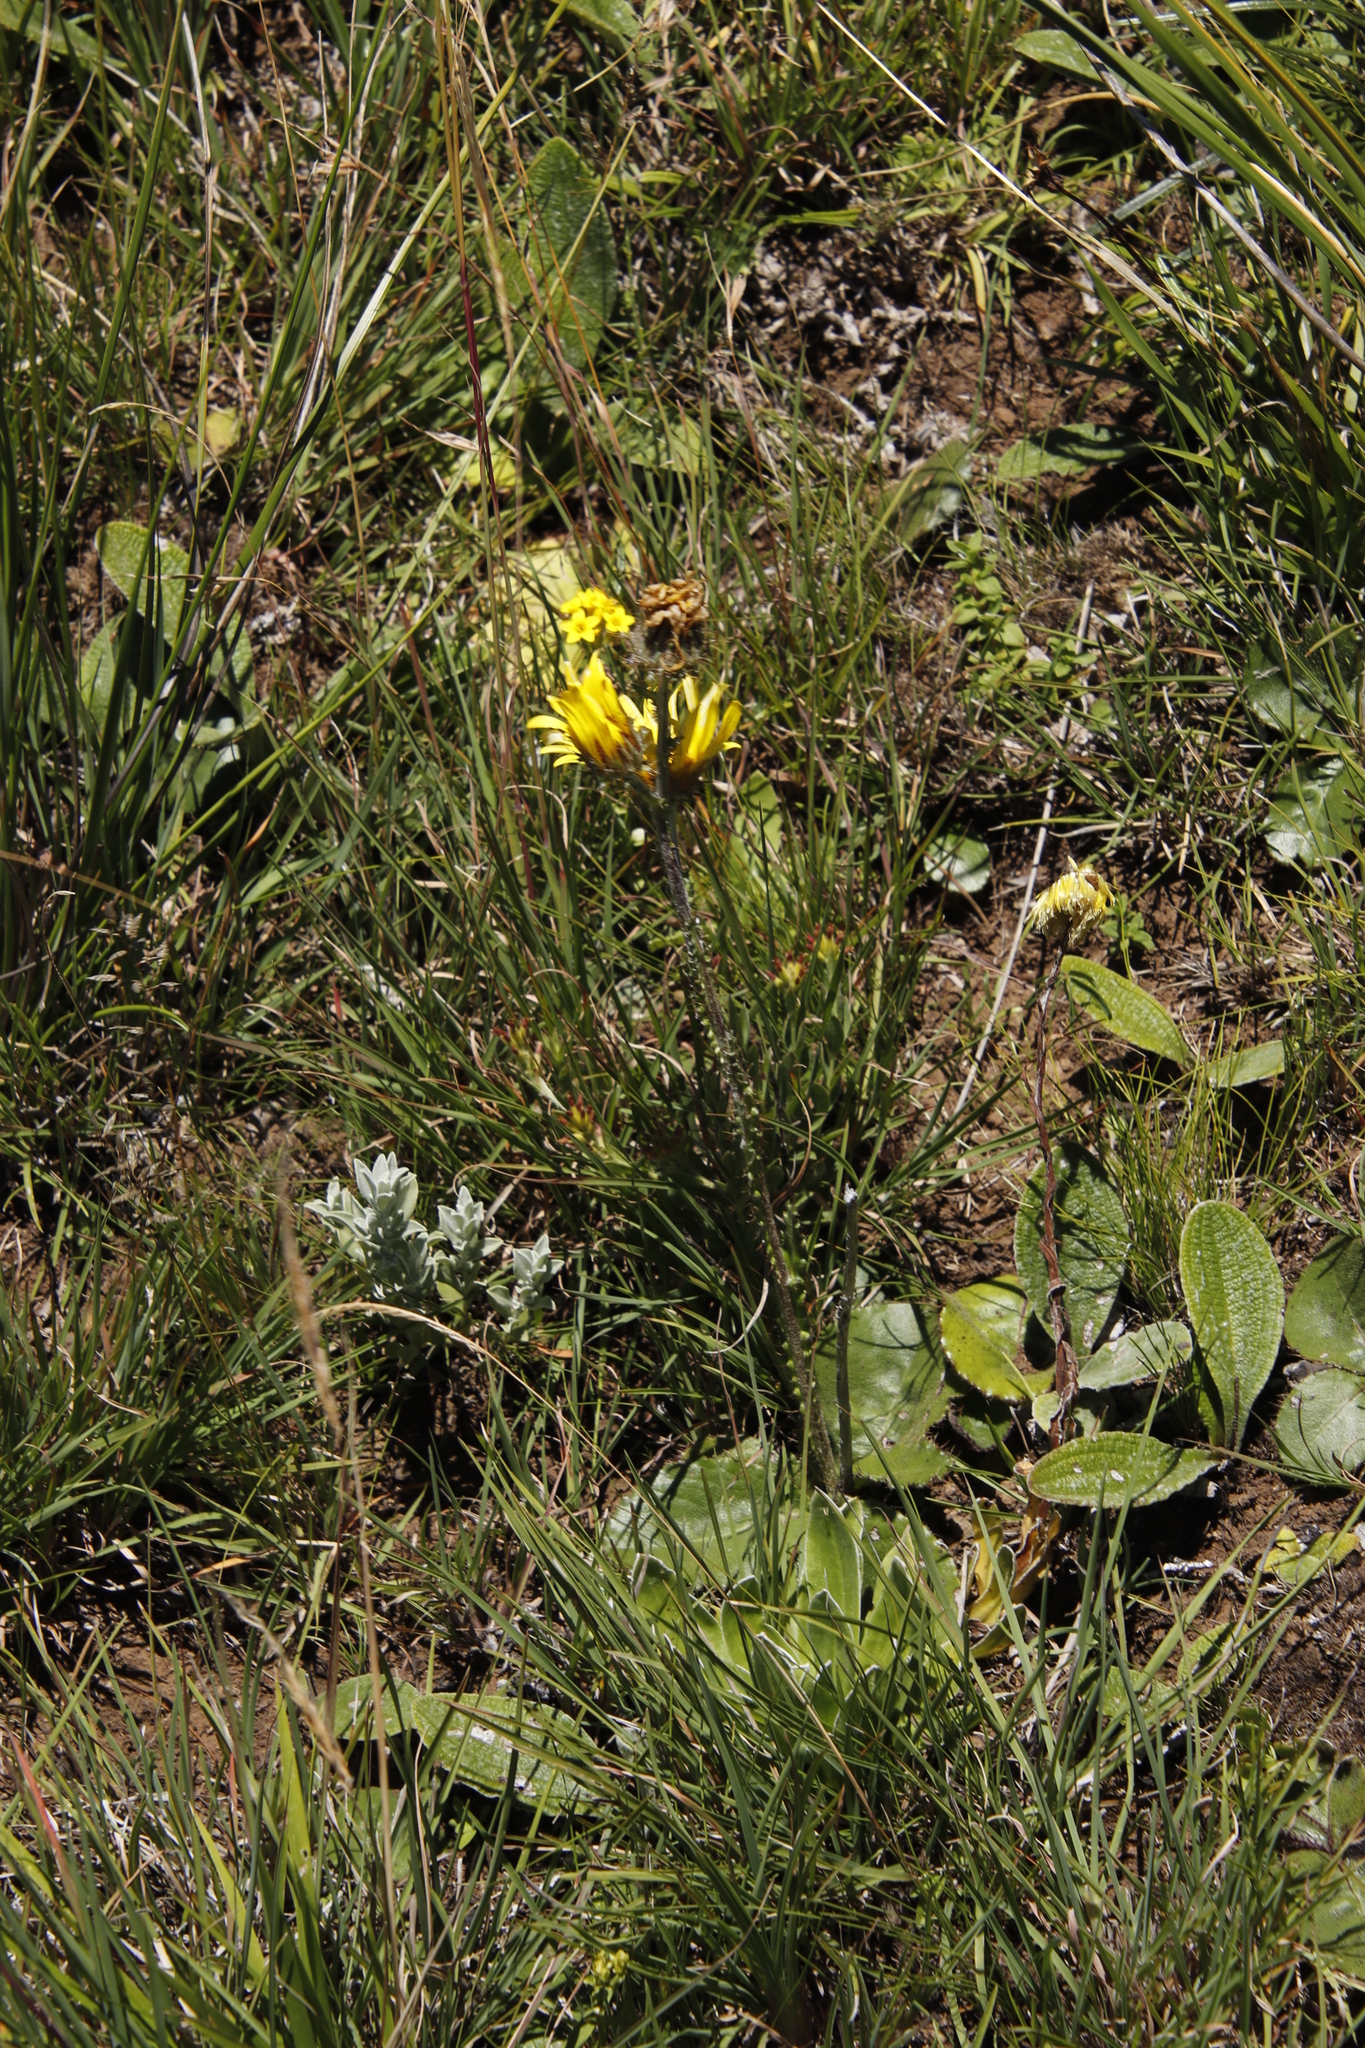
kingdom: Plantae
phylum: Tracheophyta
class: Magnoliopsida
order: Asterales
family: Asteraceae
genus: Berkheya
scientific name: Berkheya rhapontica
